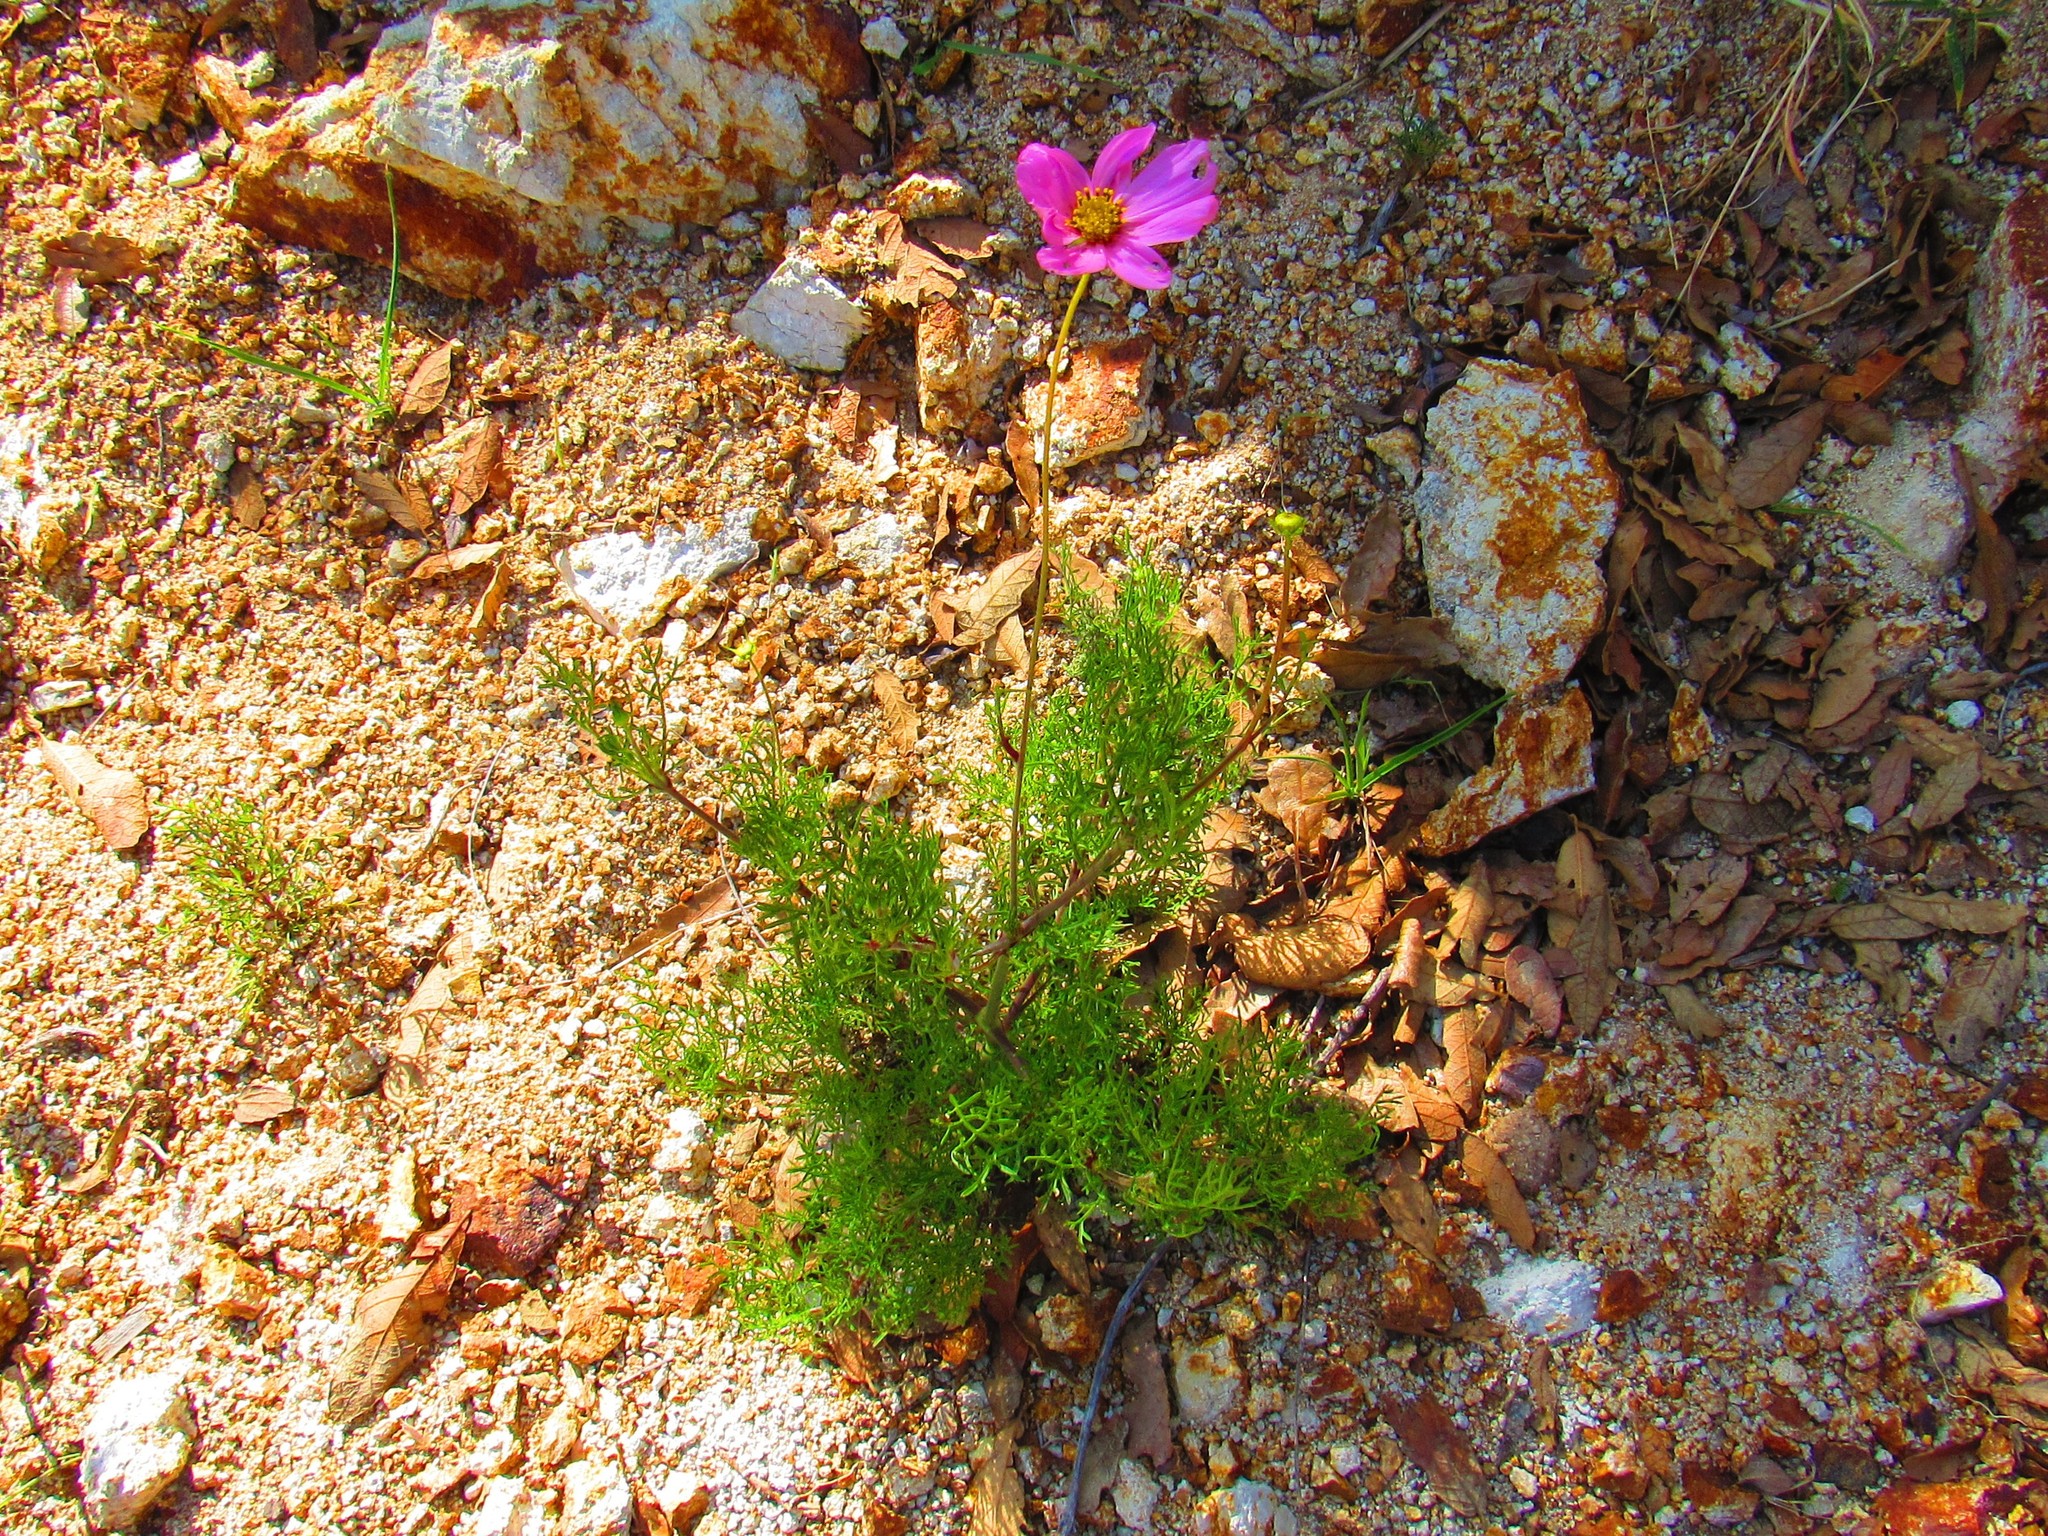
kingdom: Plantae
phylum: Tracheophyta
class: Magnoliopsida
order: Asterales
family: Asteraceae
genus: Cosmos
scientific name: Cosmos bipinnatus
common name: Garden cosmos
